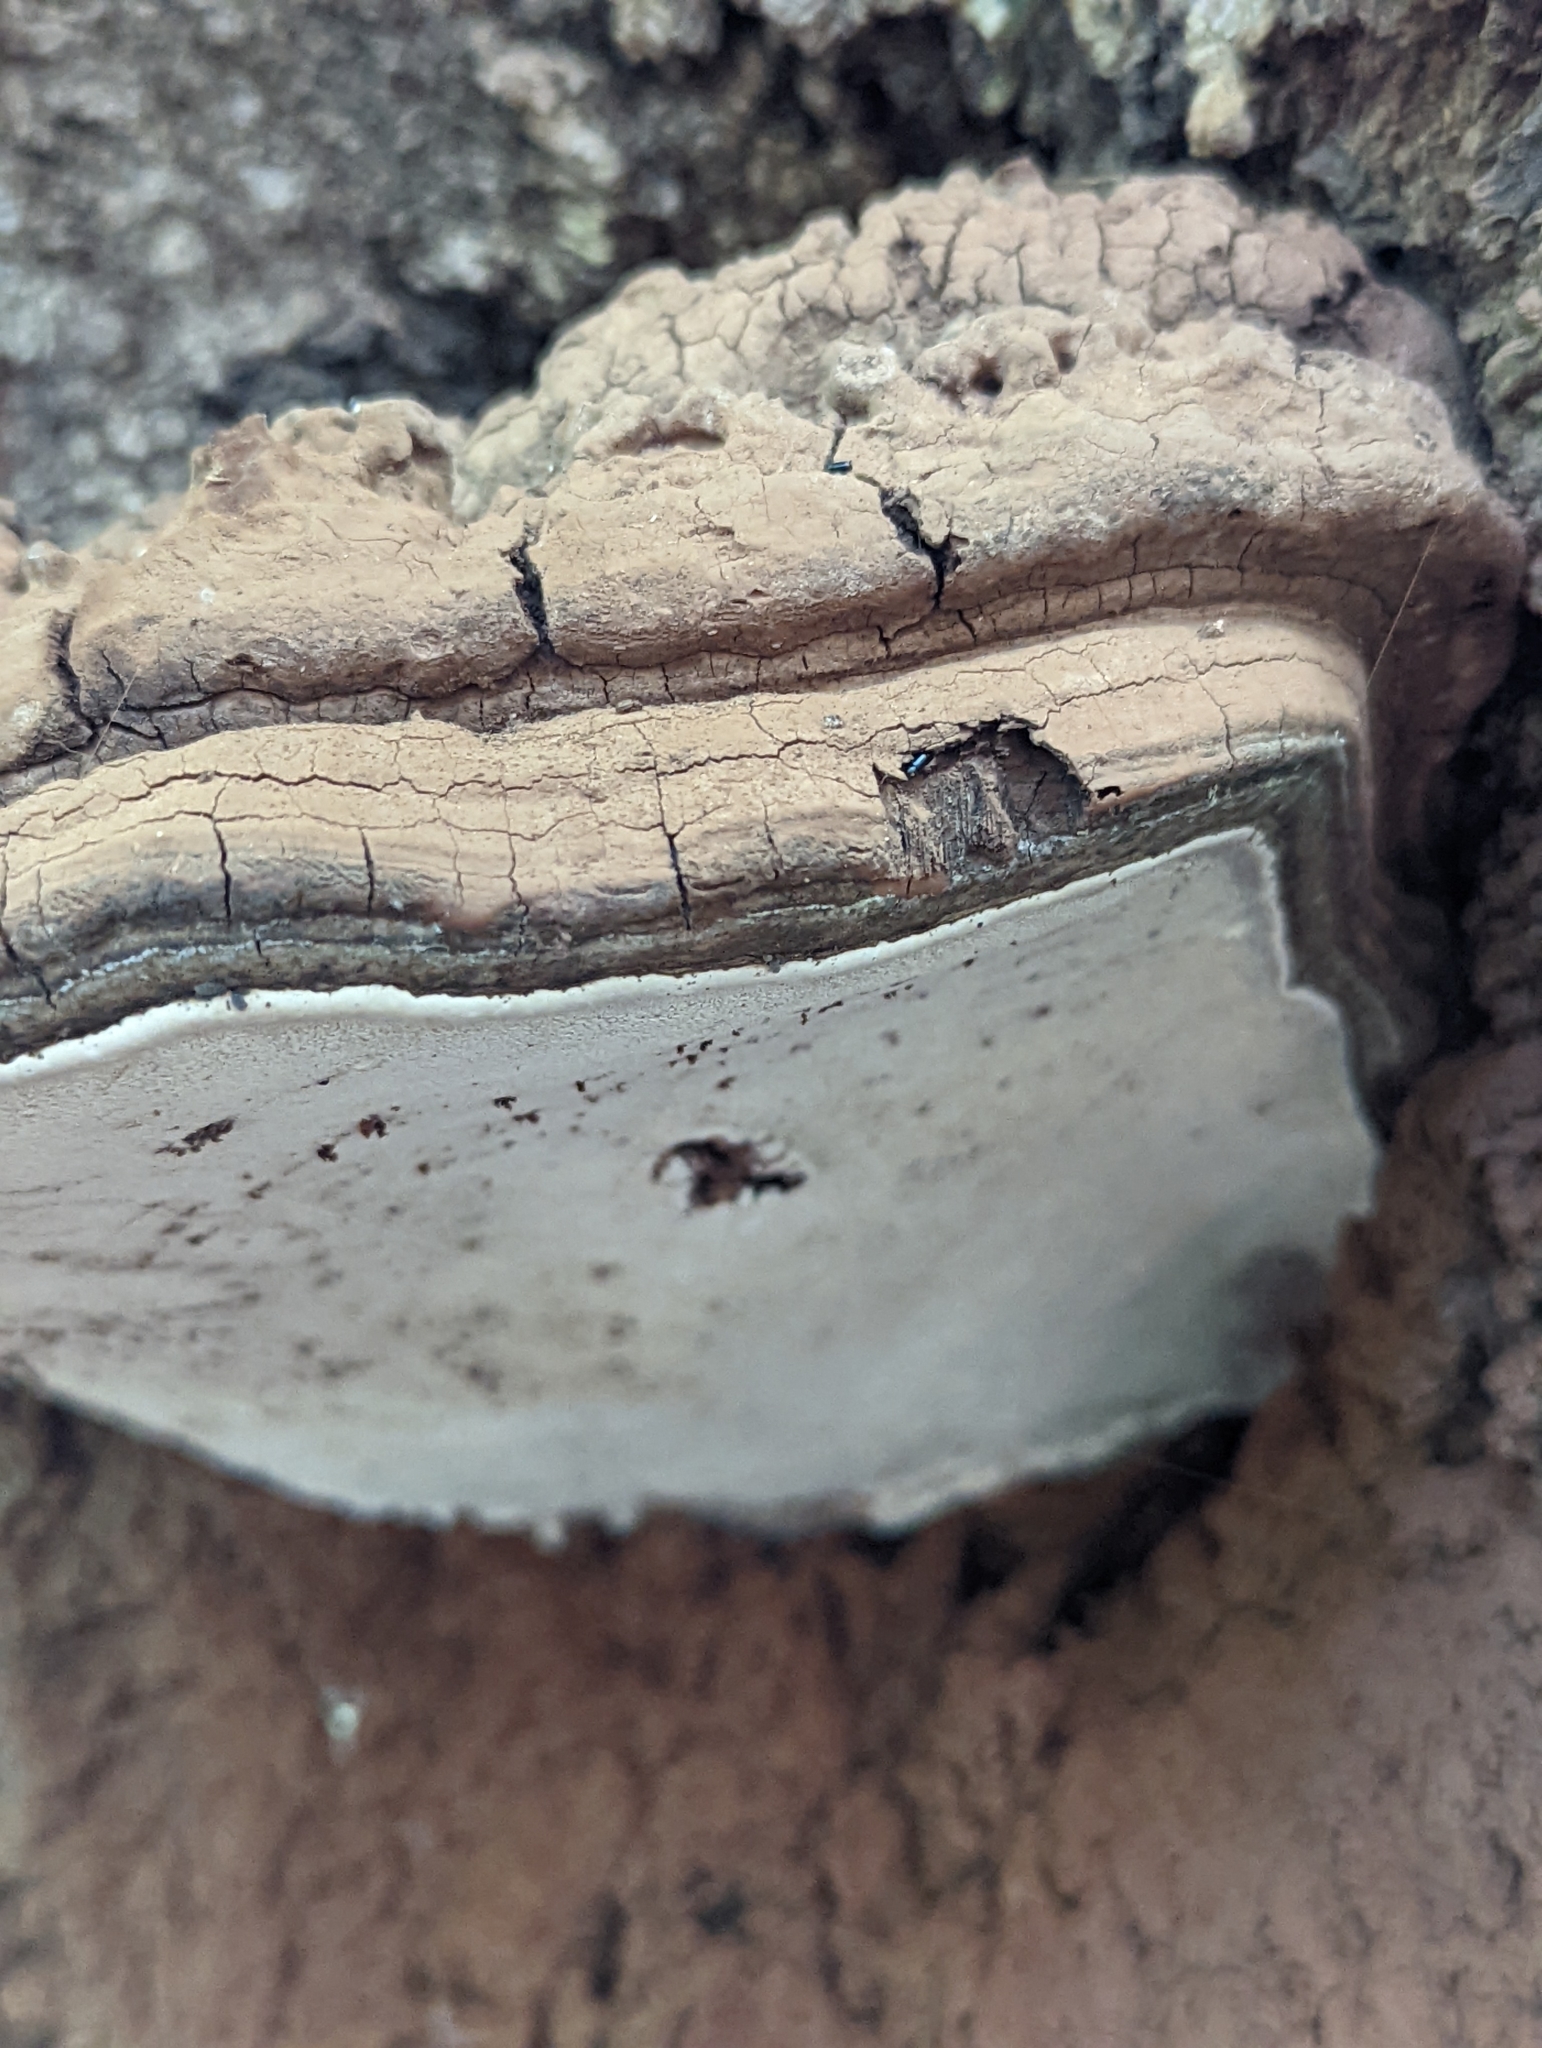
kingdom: Fungi
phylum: Basidiomycota
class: Agaricomycetes
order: Polyporales
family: Polyporaceae
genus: Ganoderma
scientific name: Ganoderma brownii
